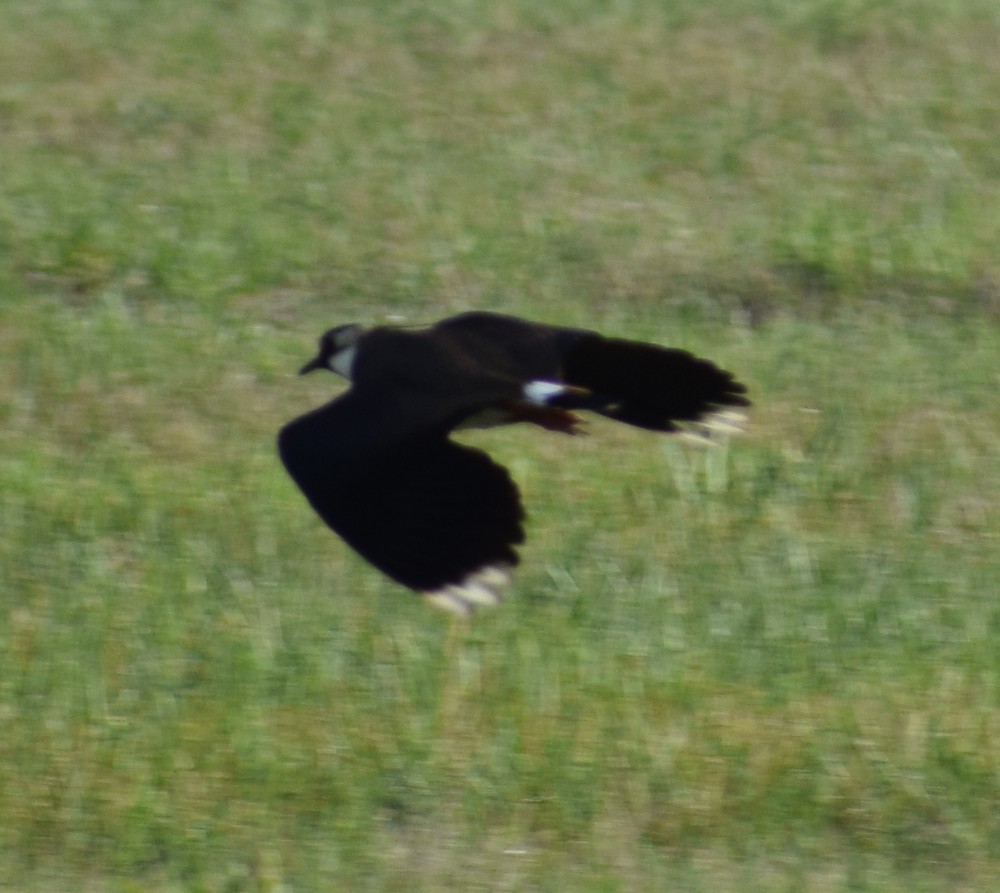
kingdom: Animalia
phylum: Chordata
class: Aves
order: Charadriiformes
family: Charadriidae
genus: Vanellus
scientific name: Vanellus vanellus
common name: Northern lapwing
